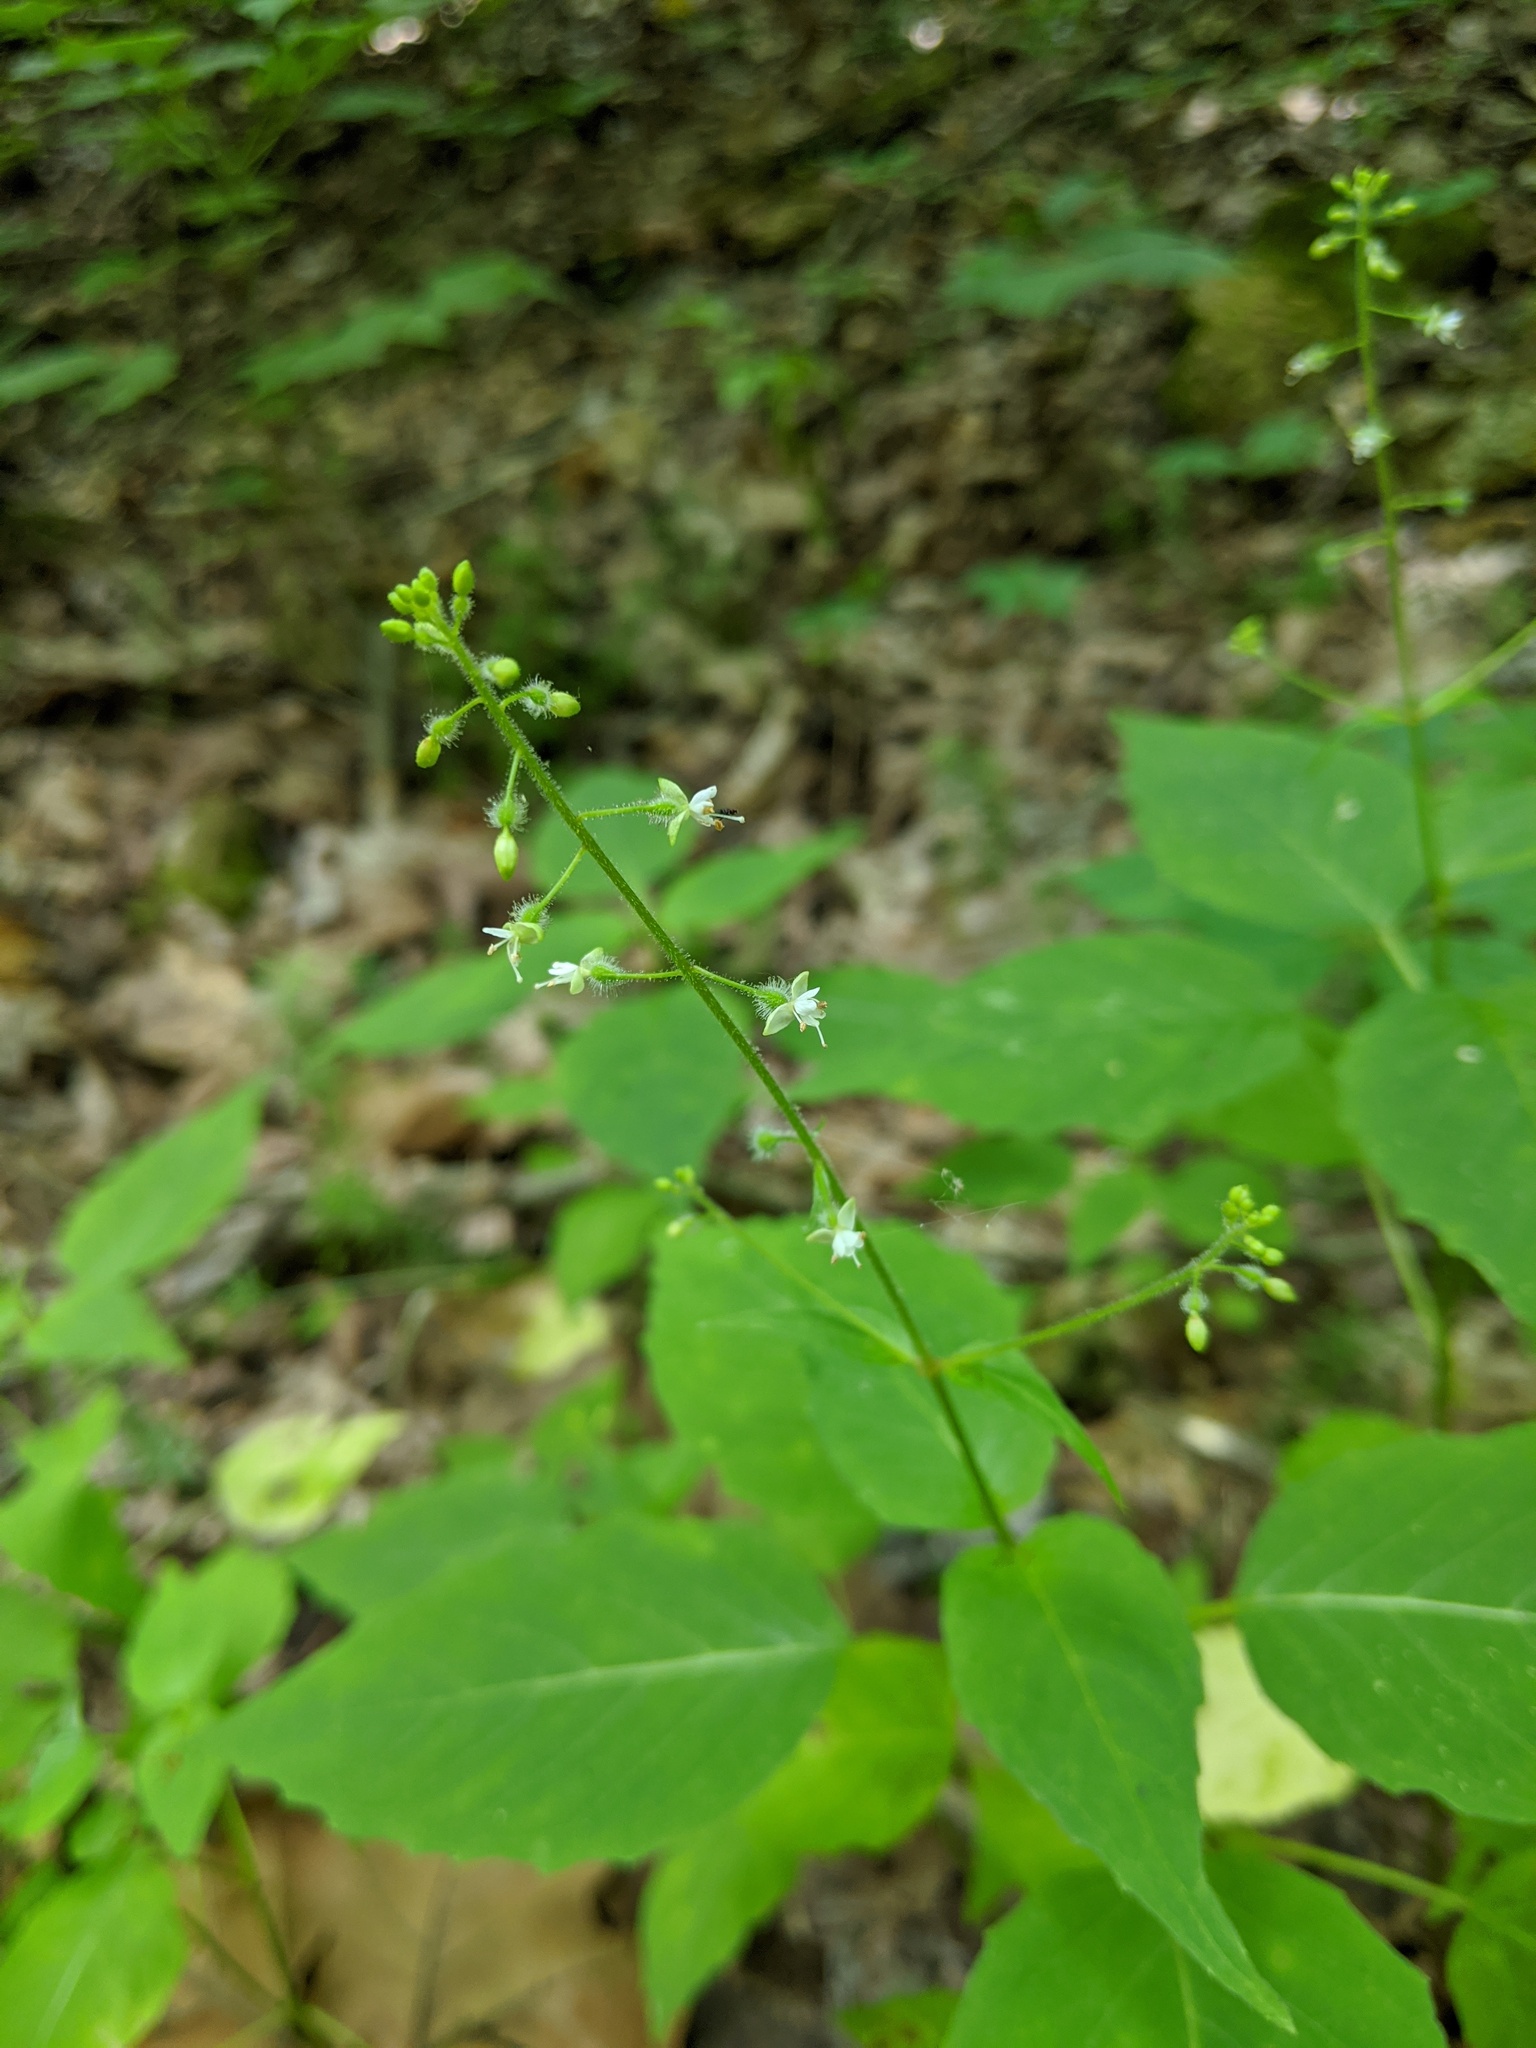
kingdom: Plantae
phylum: Tracheophyta
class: Magnoliopsida
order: Myrtales
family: Onagraceae
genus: Circaea
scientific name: Circaea canadensis
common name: Broad-leaved enchanter's nightshade
